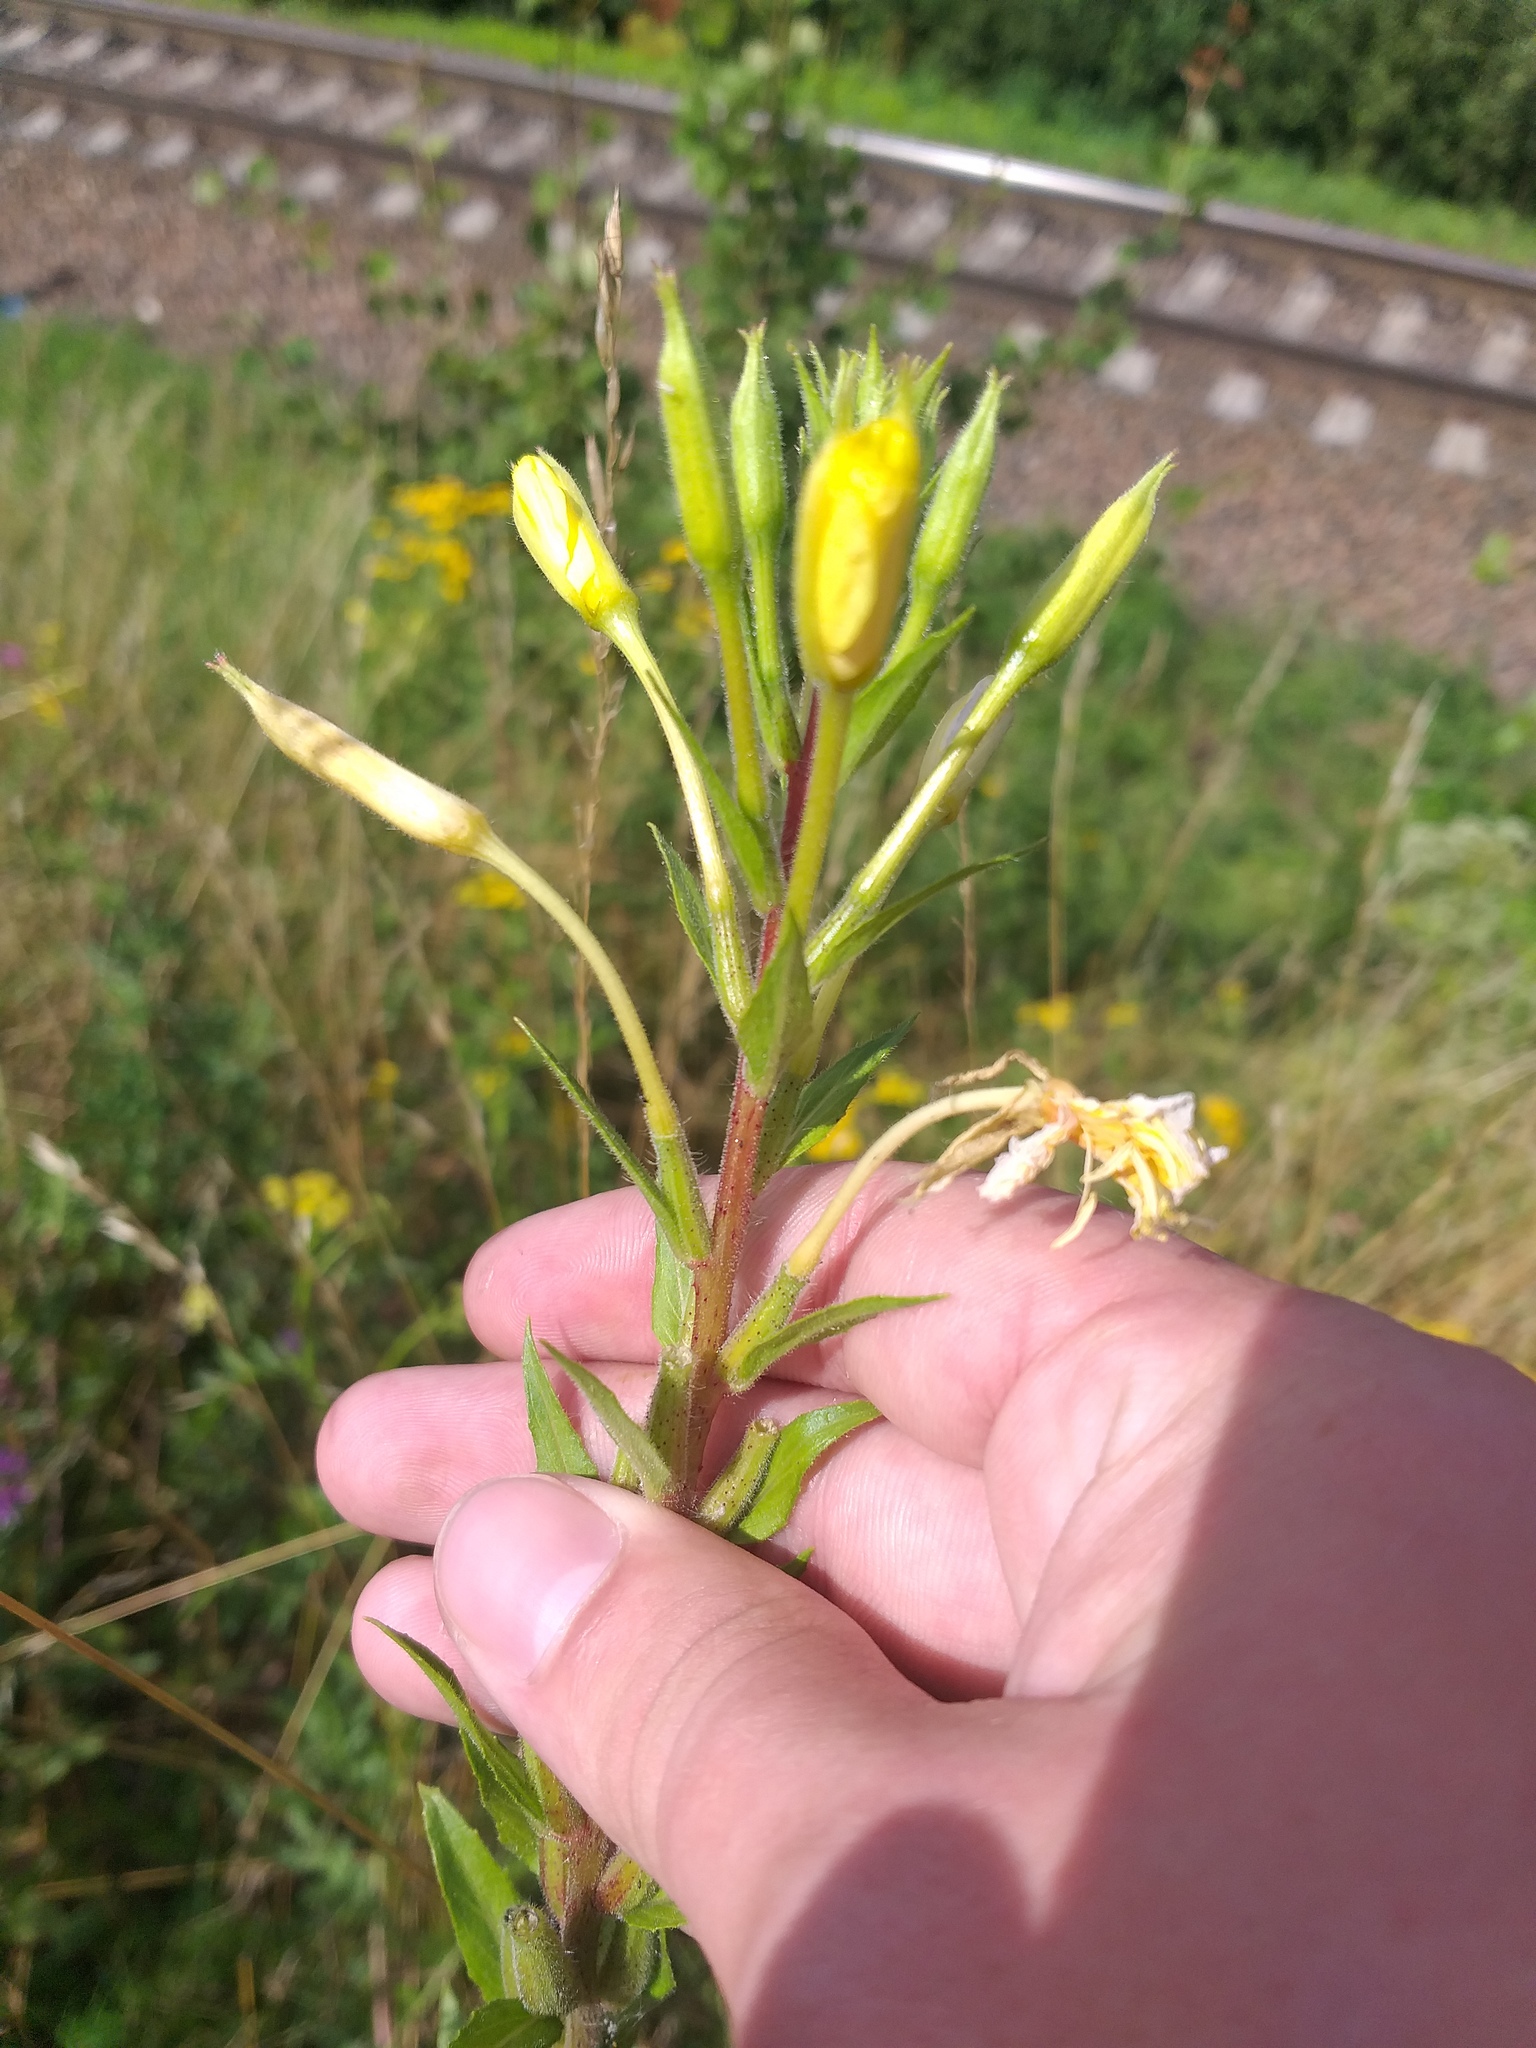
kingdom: Plantae
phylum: Tracheophyta
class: Magnoliopsida
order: Myrtales
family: Onagraceae
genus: Oenothera
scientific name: Oenothera rubricaulis
